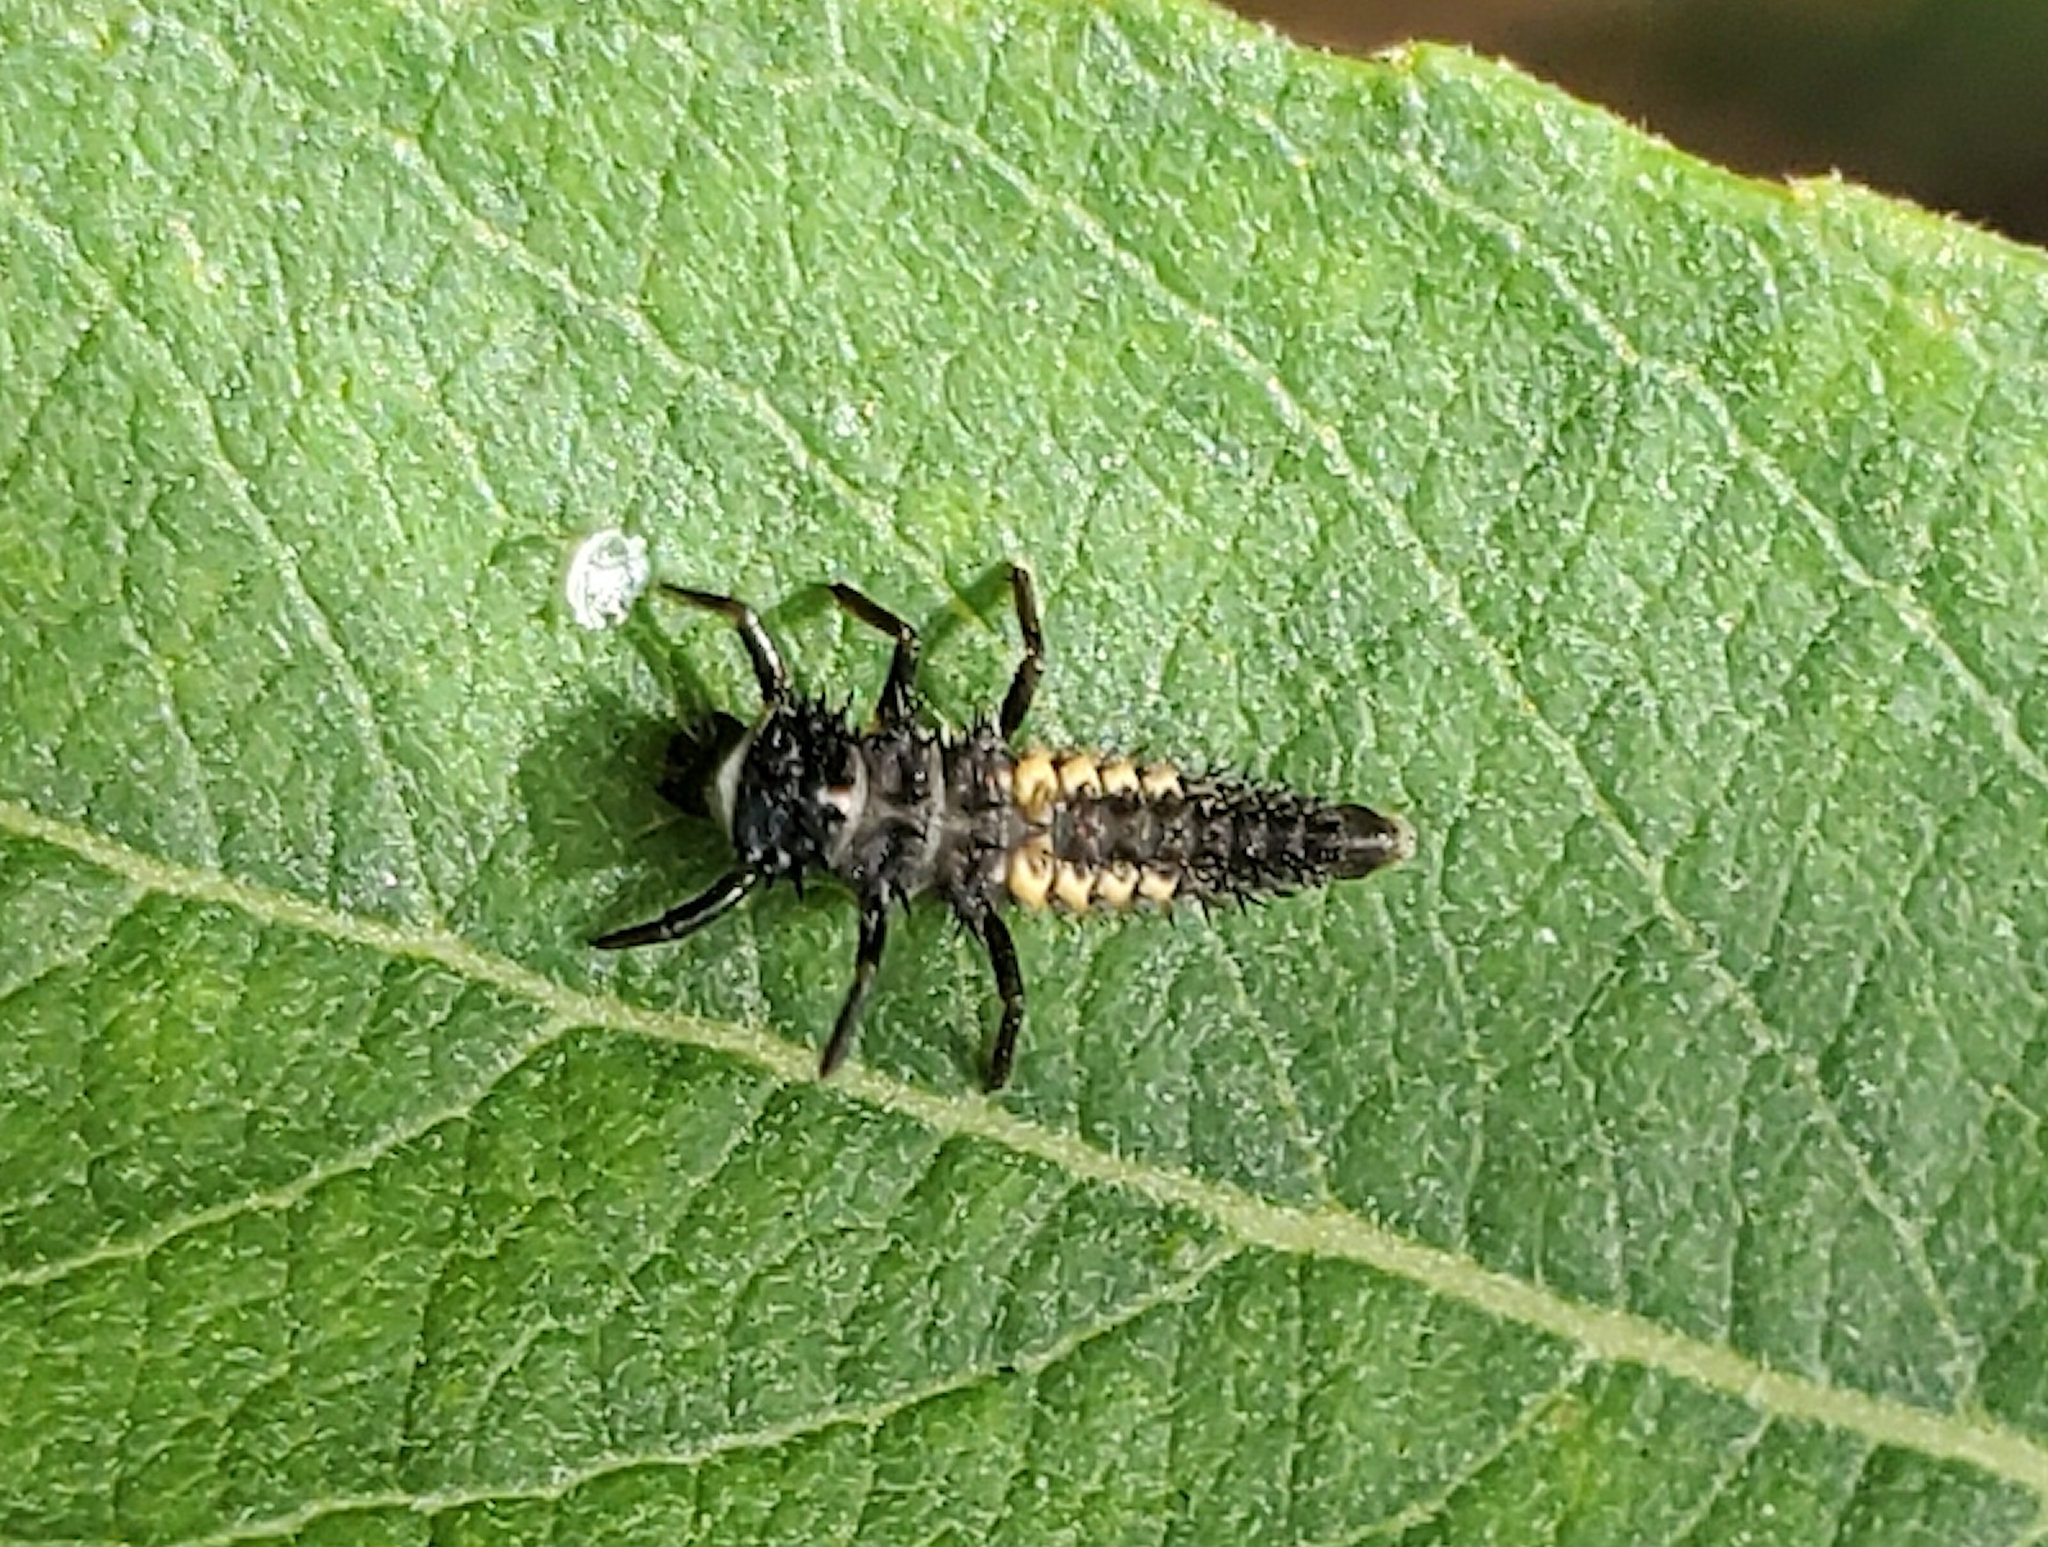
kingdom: Animalia
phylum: Arthropoda
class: Insecta
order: Coleoptera
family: Coccinellidae
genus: Harmonia
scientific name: Harmonia axyridis
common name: Harlequin ladybird
